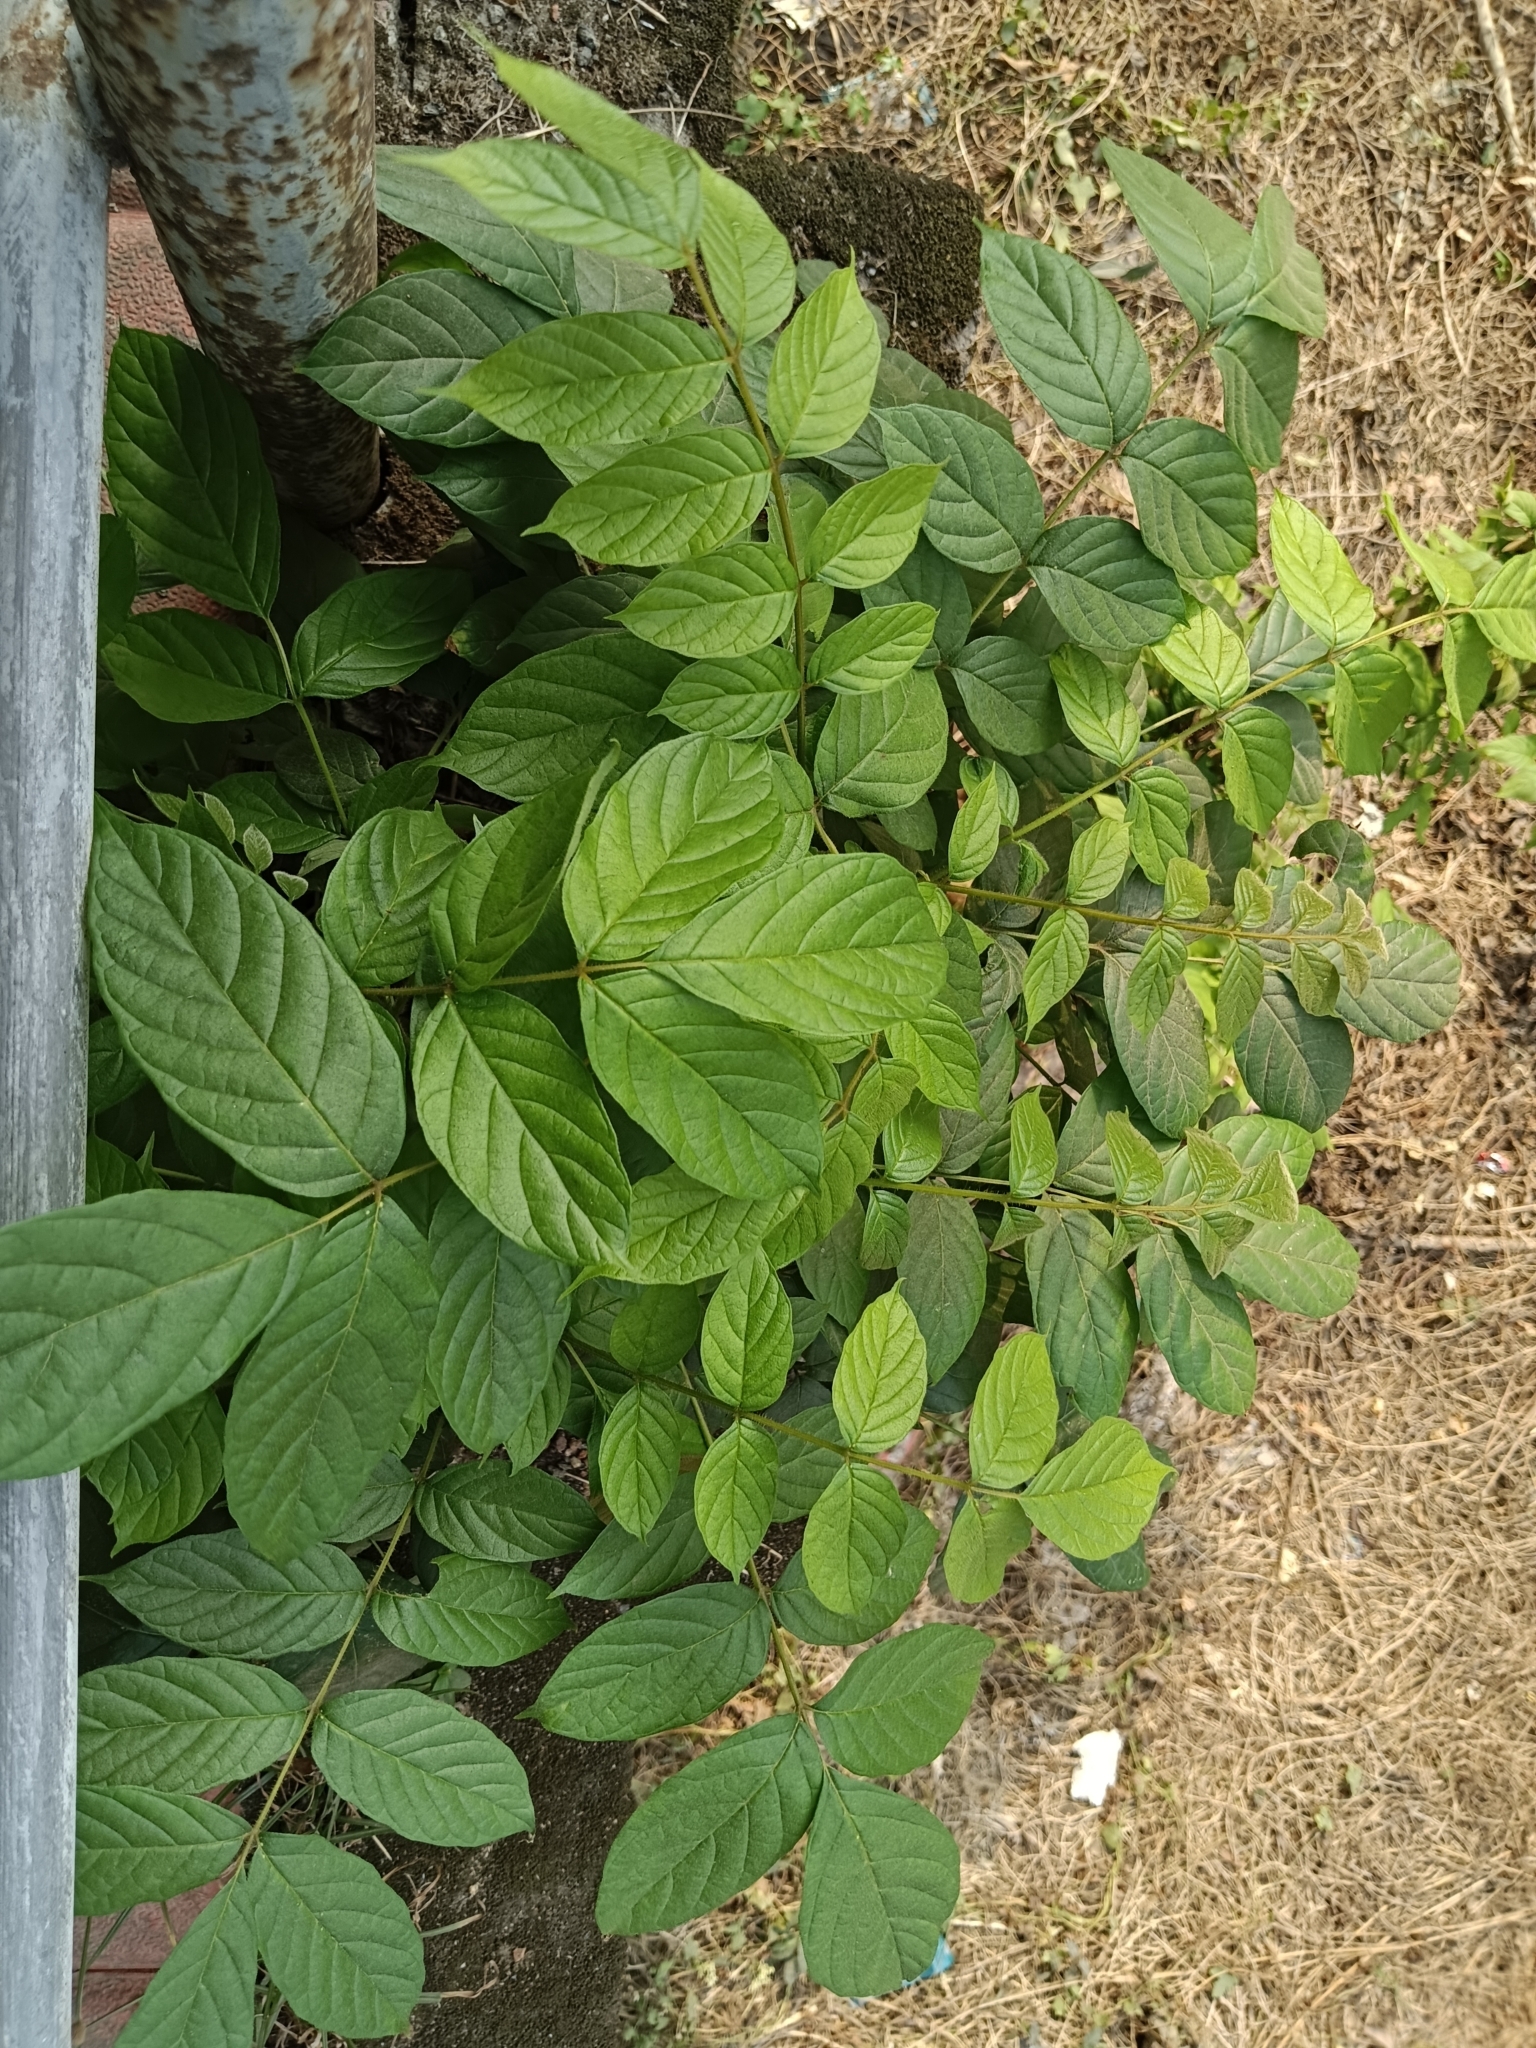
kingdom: Plantae
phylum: Tracheophyta
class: Magnoliopsida
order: Lamiales
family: Bignoniaceae
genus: Spathodea
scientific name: Spathodea campanulata
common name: African tuliptree
